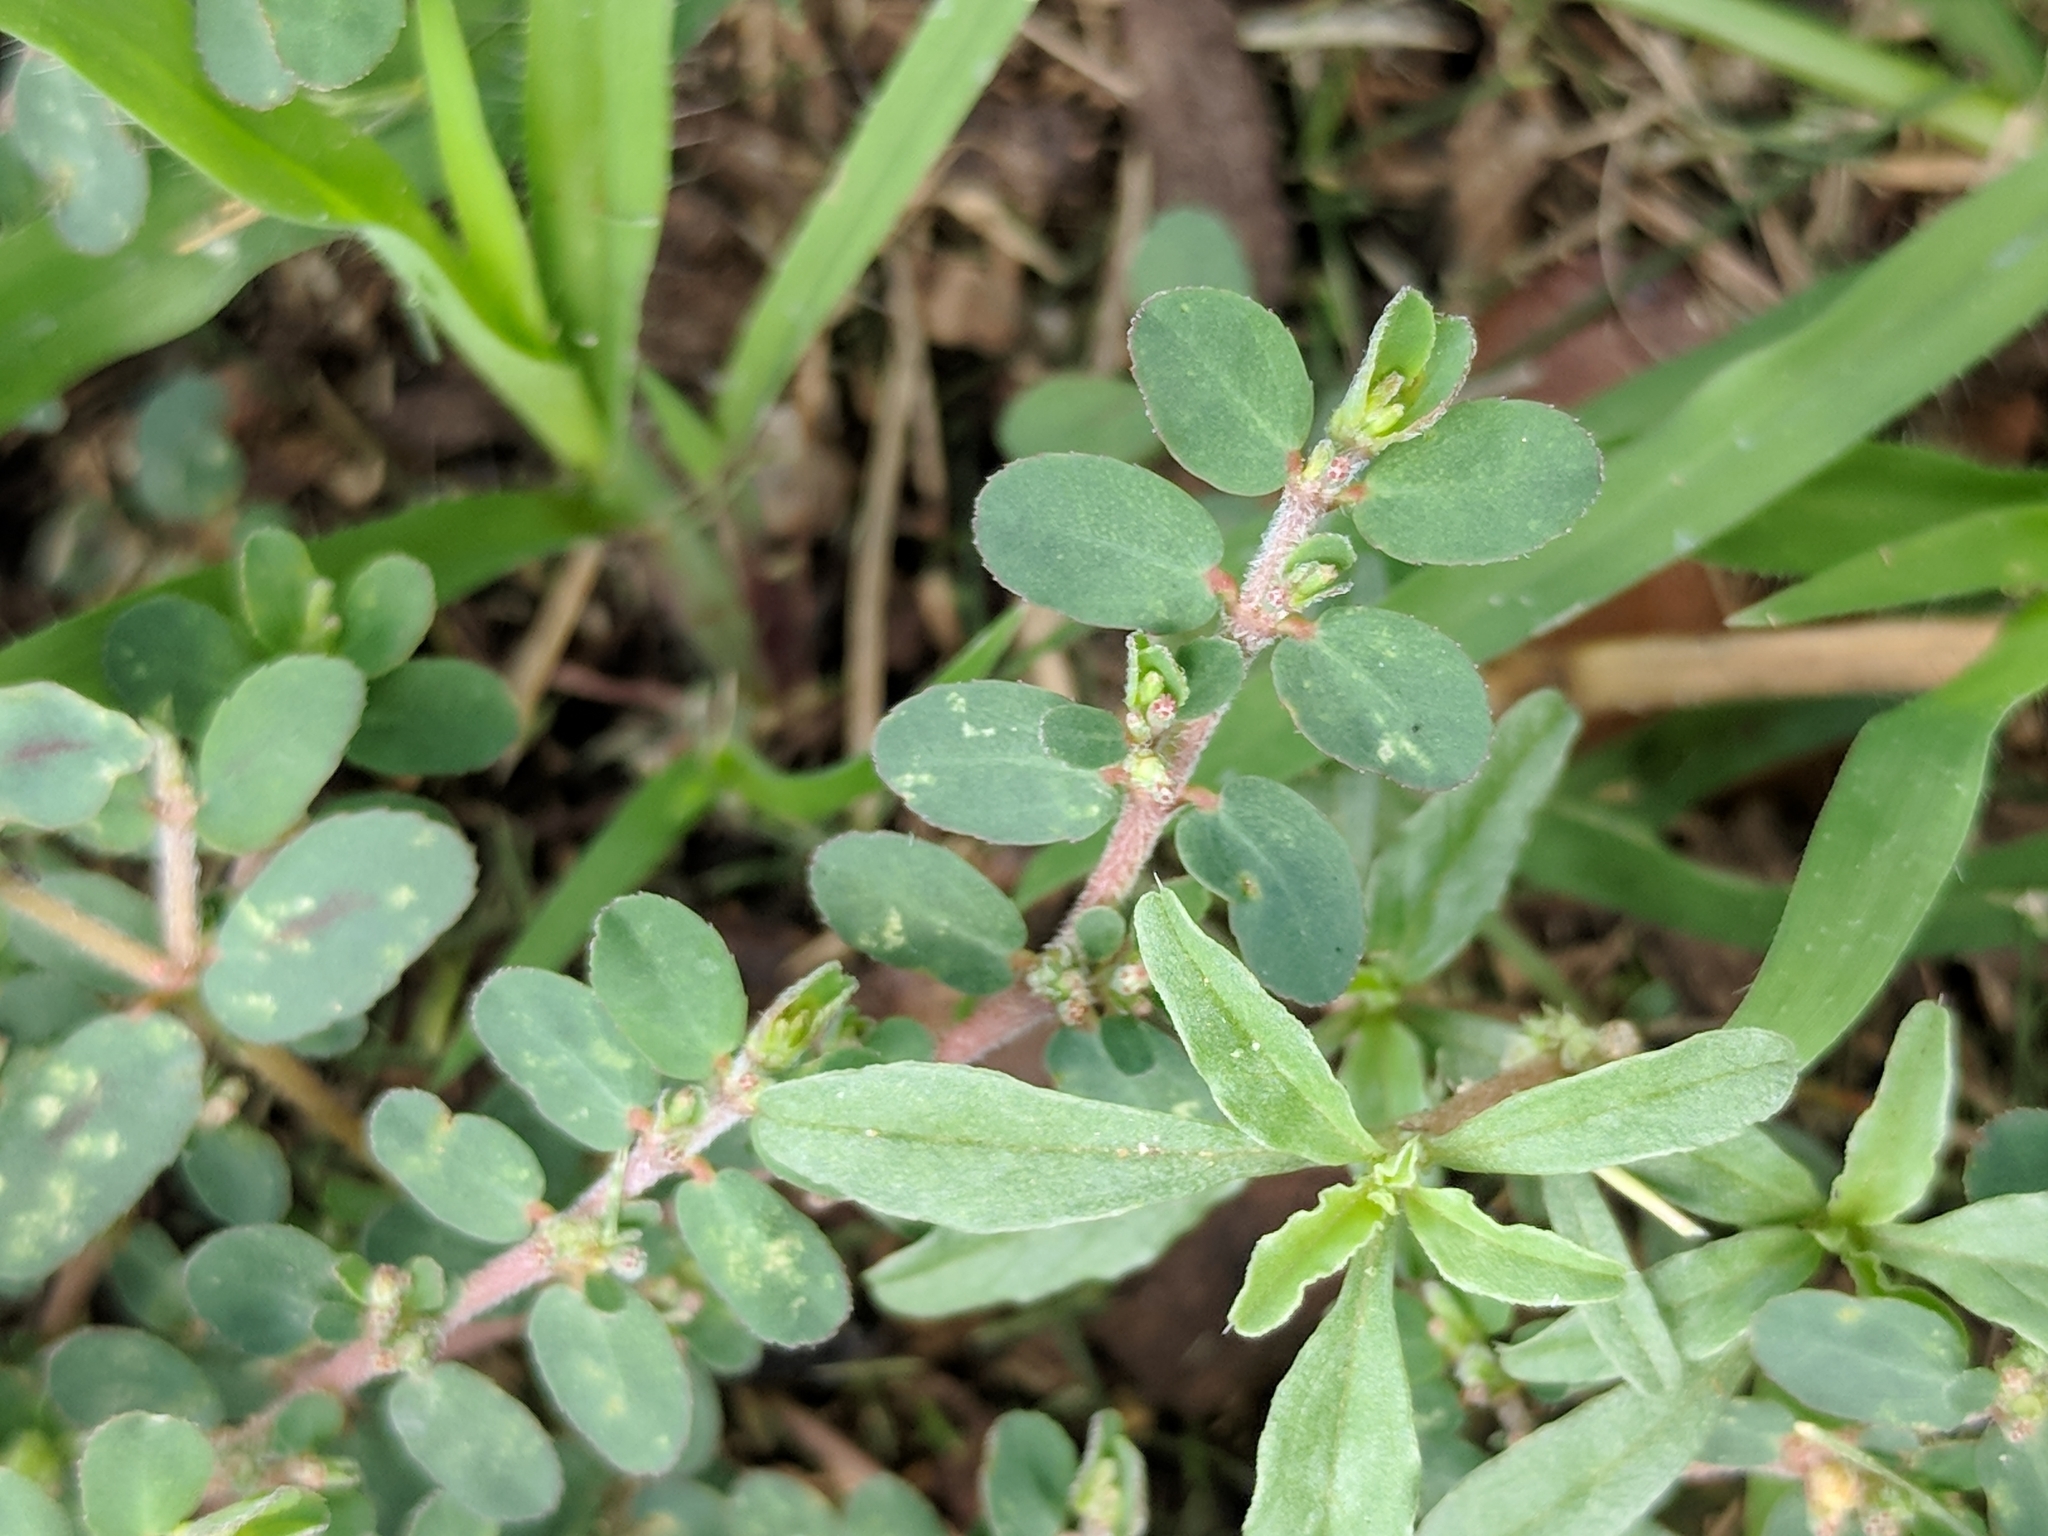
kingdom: Plantae
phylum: Tracheophyta
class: Magnoliopsida
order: Malpighiales
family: Euphorbiaceae
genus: Euphorbia
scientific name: Euphorbia prostrata
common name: Prostrate sandmat
